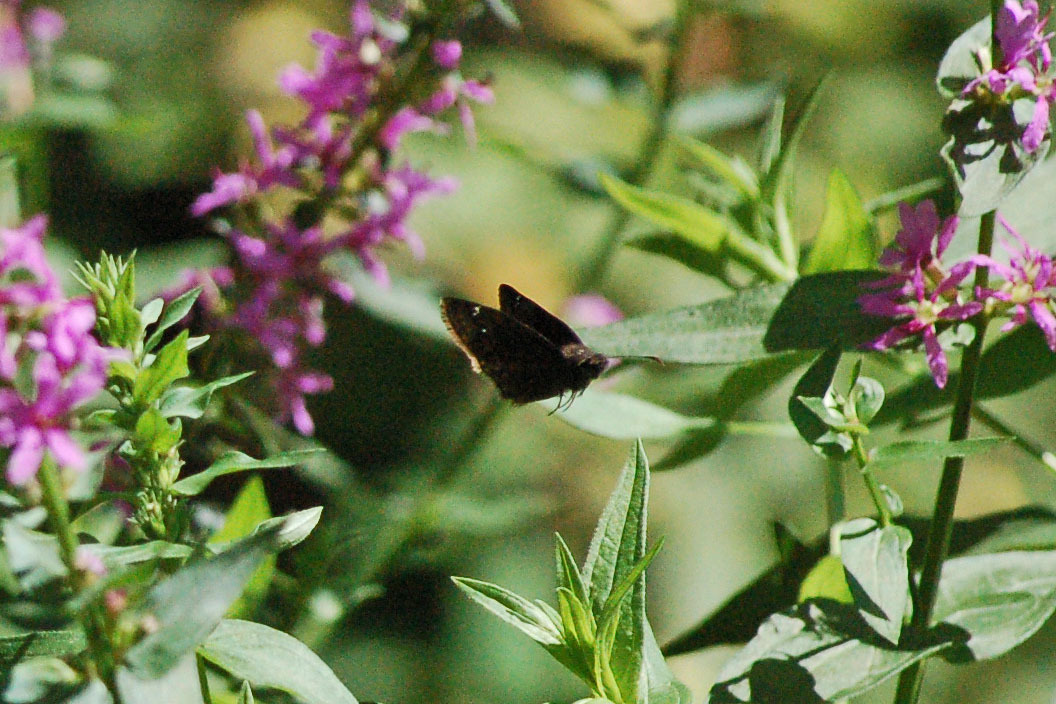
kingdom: Animalia
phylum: Arthropoda
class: Insecta
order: Lepidoptera
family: Hesperiidae
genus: Erynnis
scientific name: Erynnis baptisiae
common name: Wild indigo duskywing
